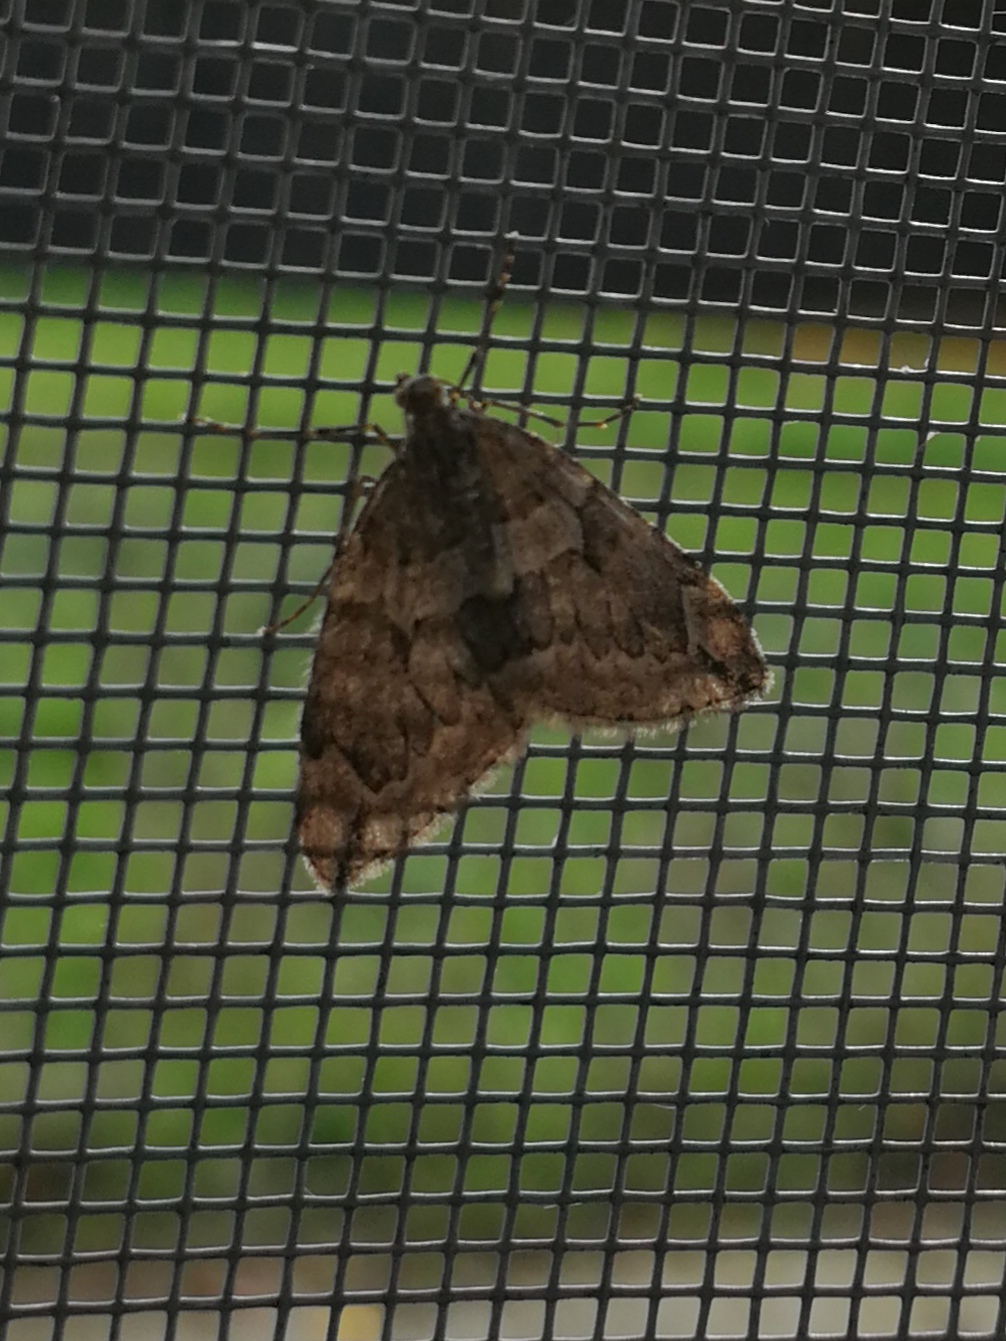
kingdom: Animalia
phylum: Arthropoda
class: Insecta
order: Lepidoptera
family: Geometridae
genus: Thera
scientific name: Thera juniperata
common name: Juniper carpet
